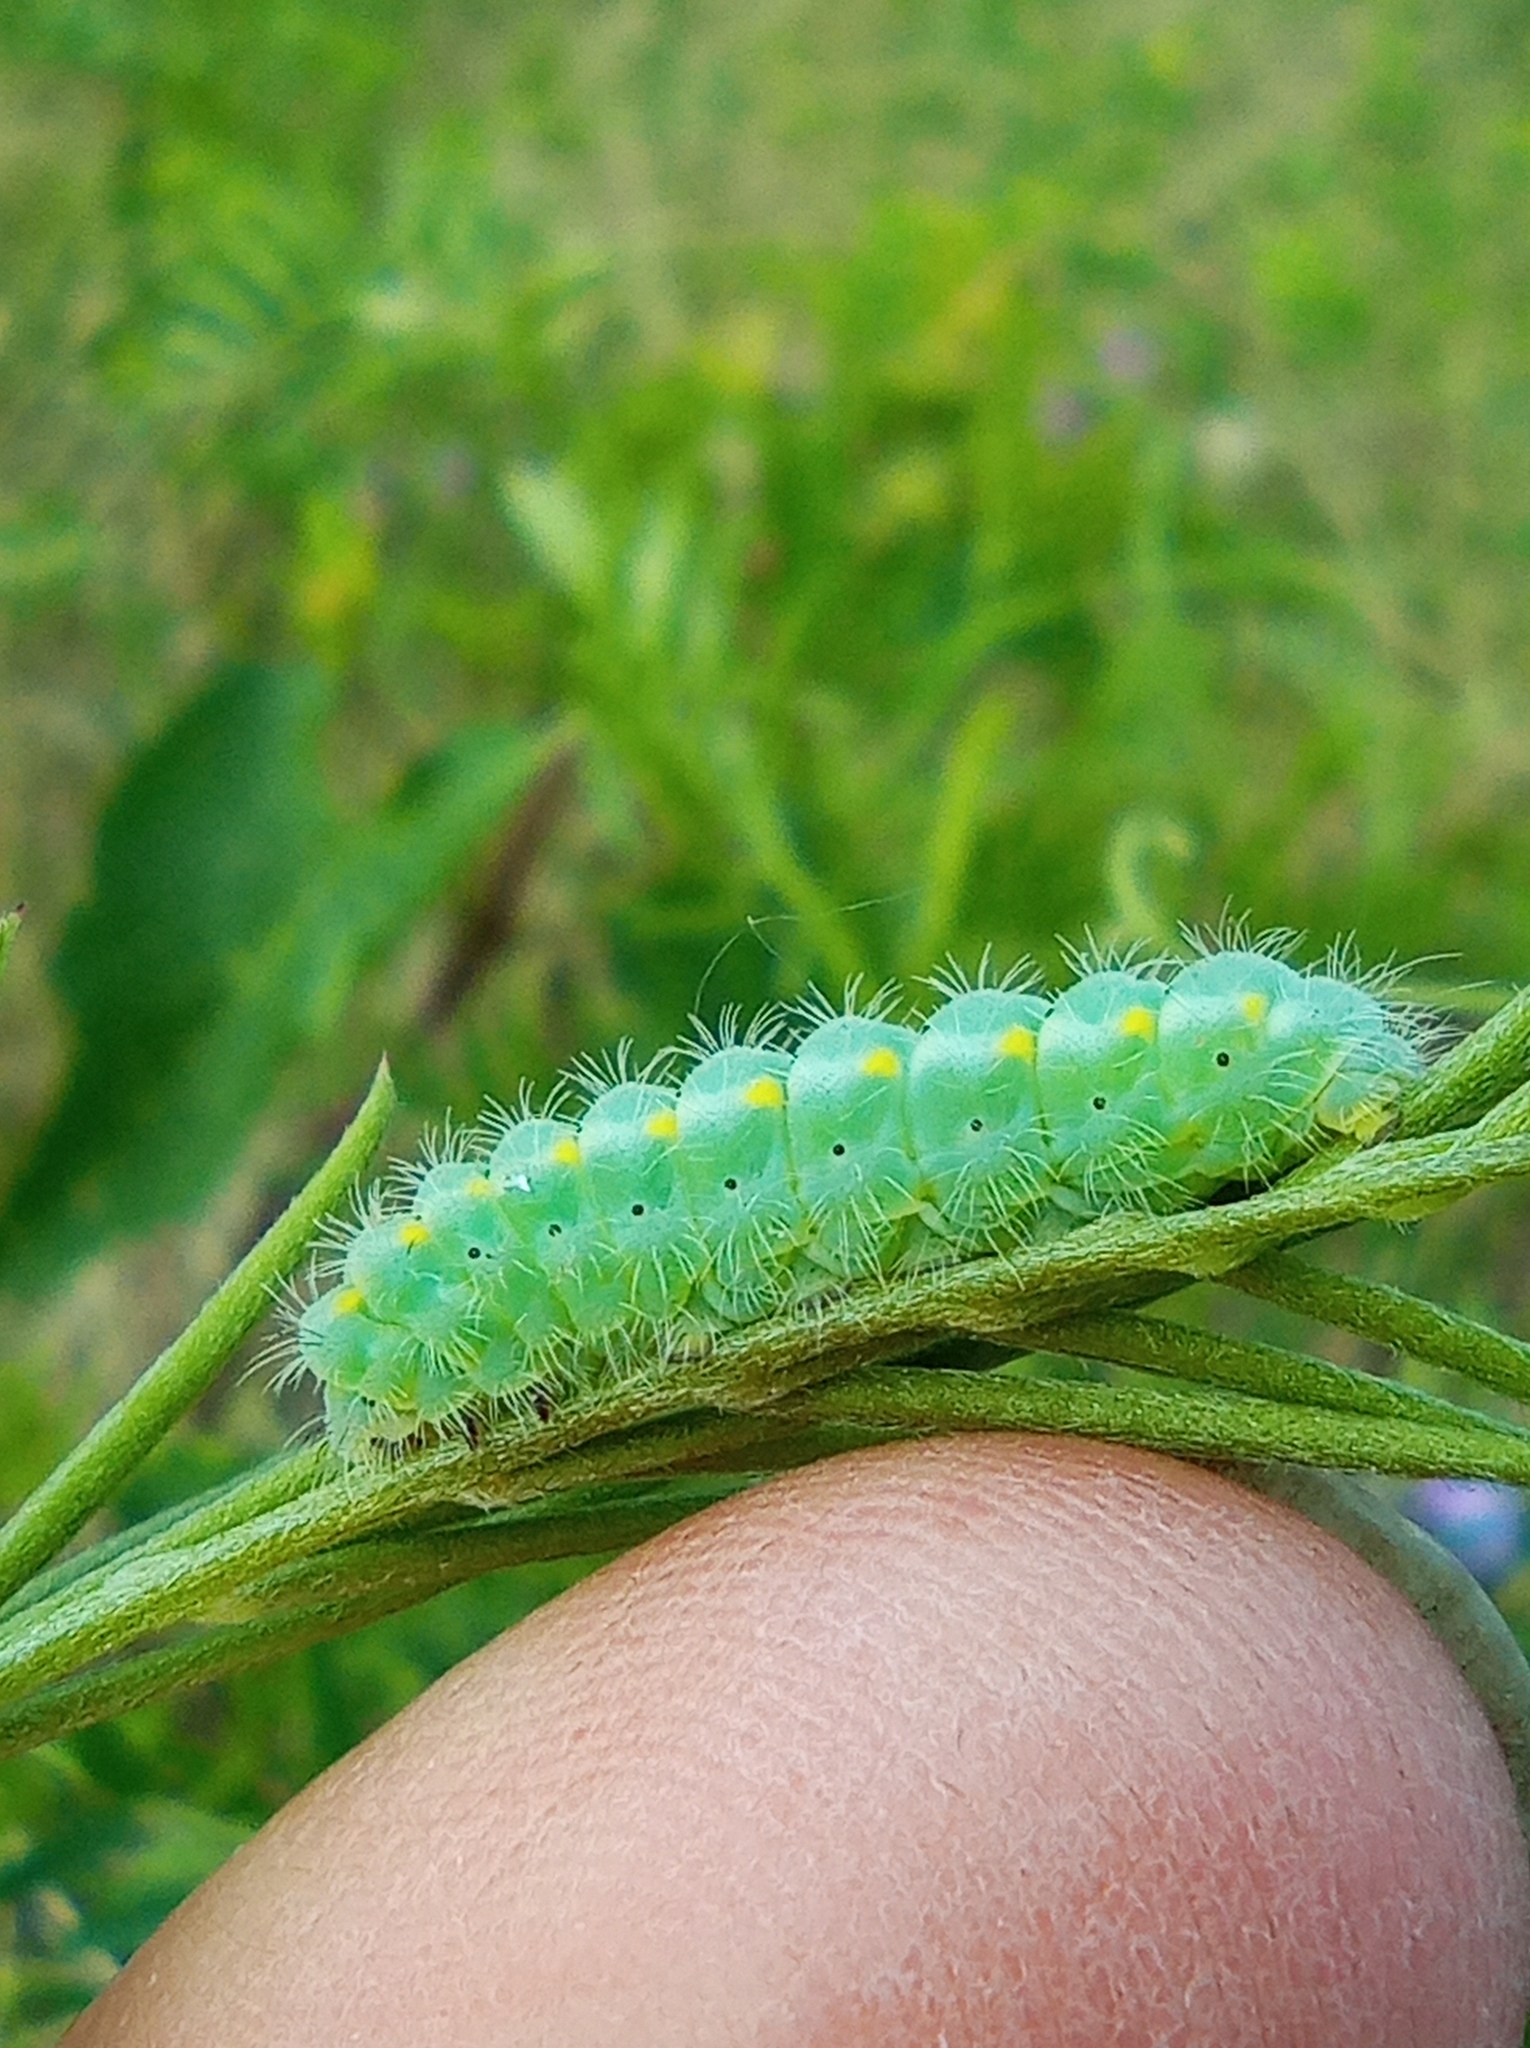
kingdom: Animalia
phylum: Arthropoda
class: Insecta
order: Lepidoptera
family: Zygaenidae
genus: Zygaena
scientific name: Zygaena viciae
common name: New forest burnet
